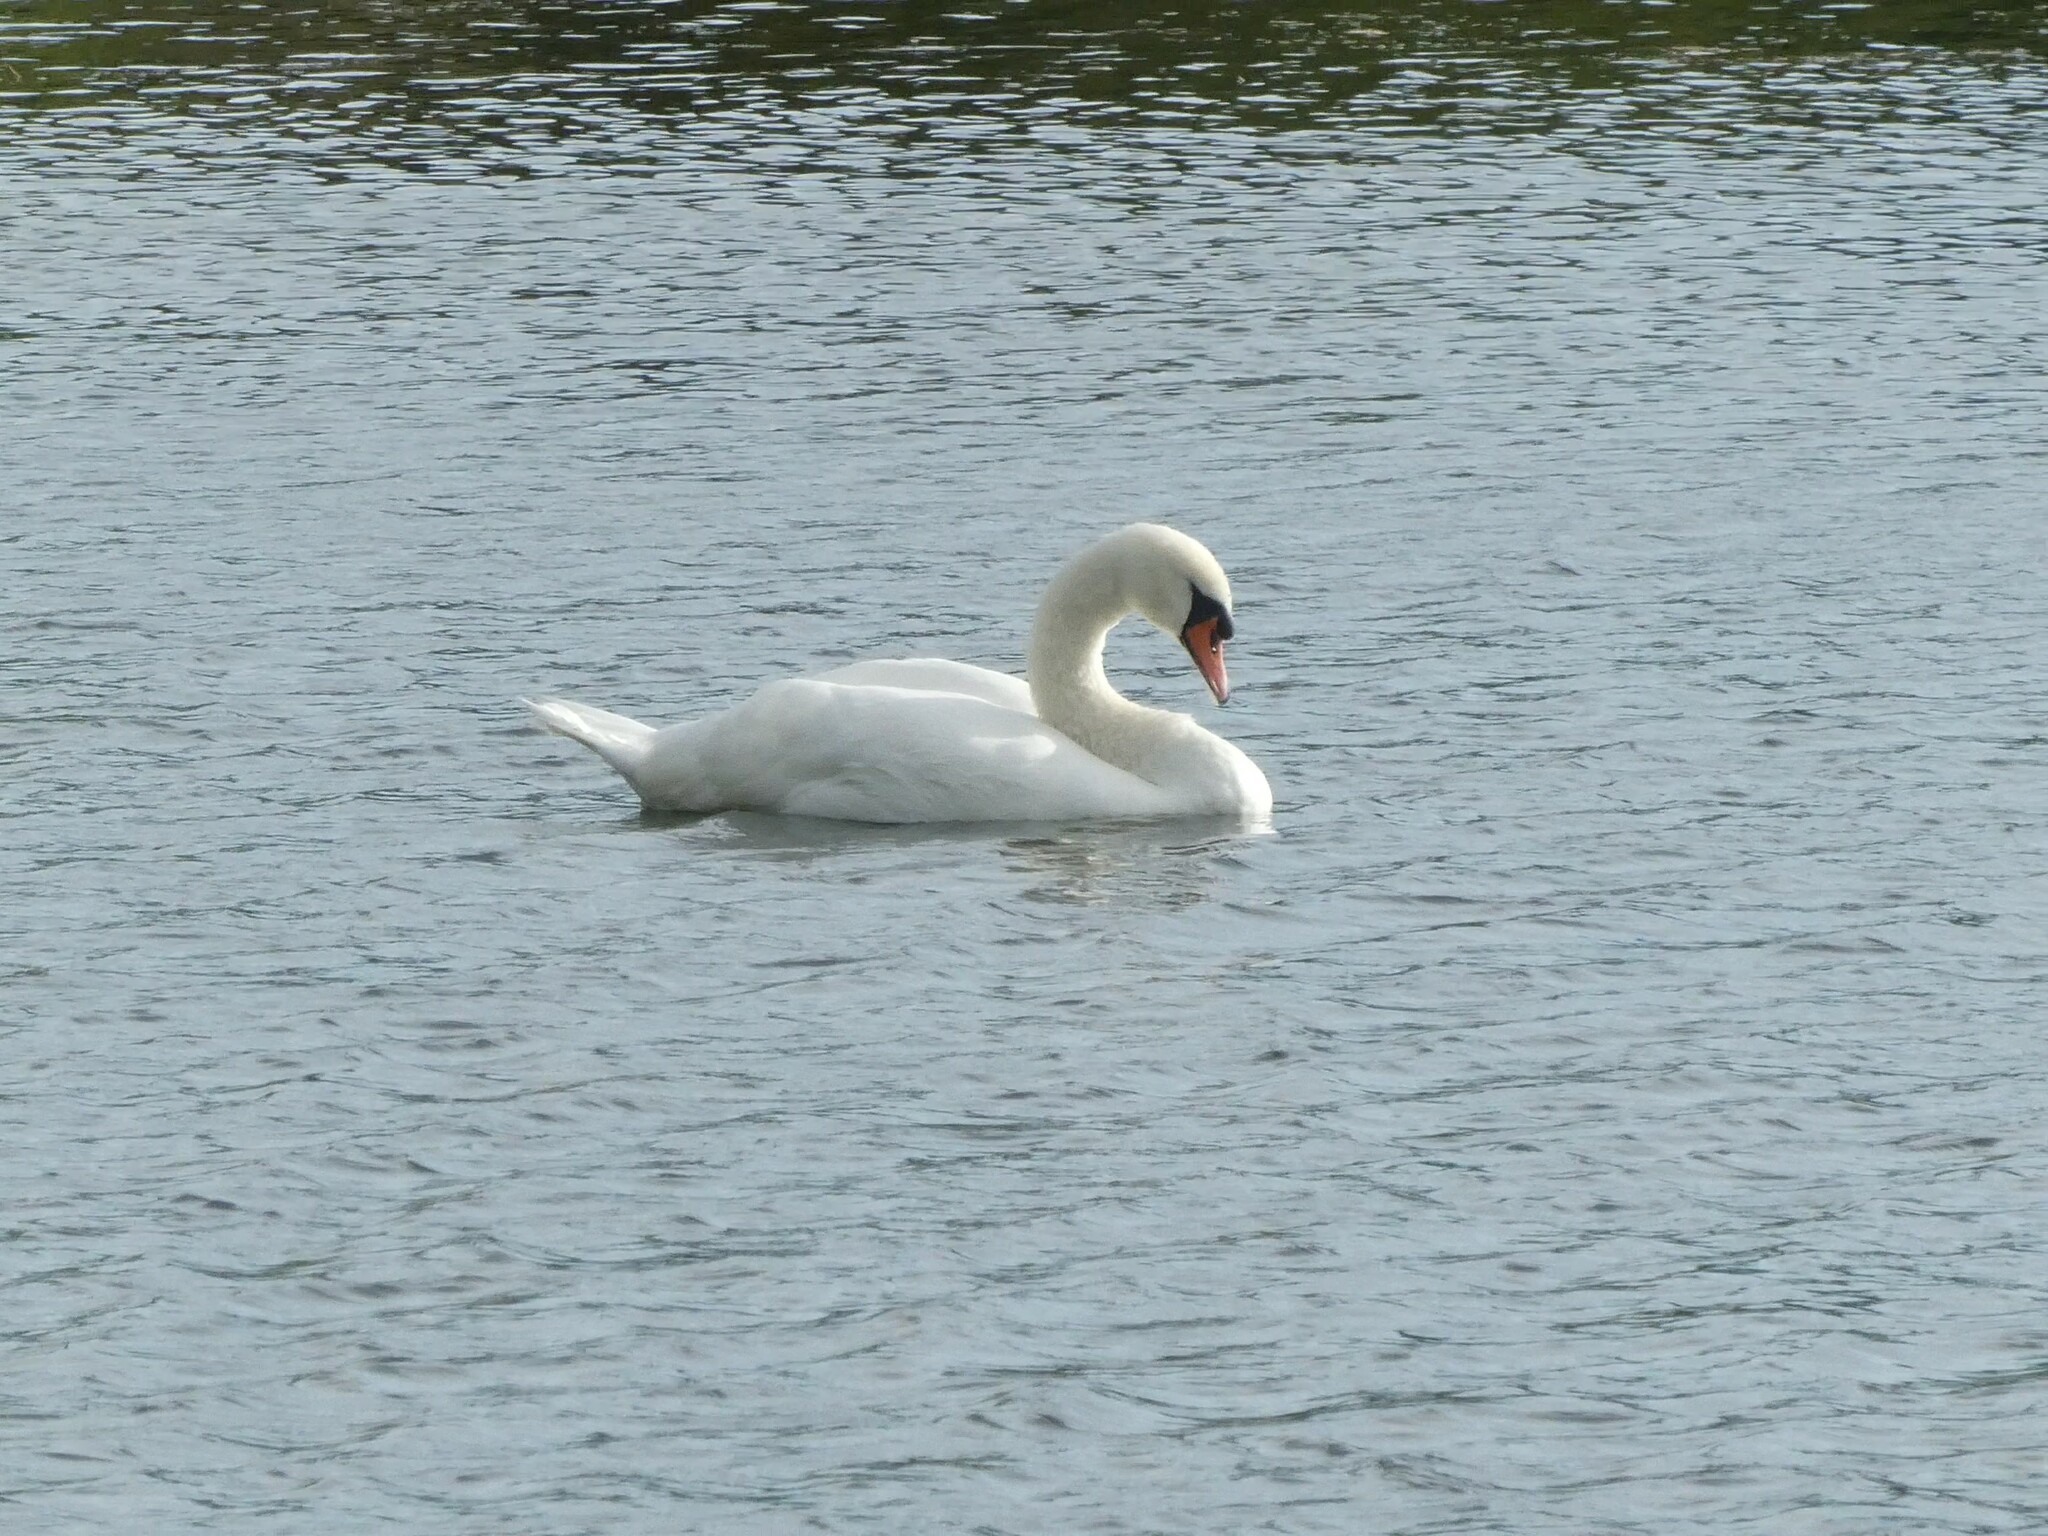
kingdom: Animalia
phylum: Chordata
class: Aves
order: Anseriformes
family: Anatidae
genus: Cygnus
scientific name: Cygnus olor
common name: Mute swan
